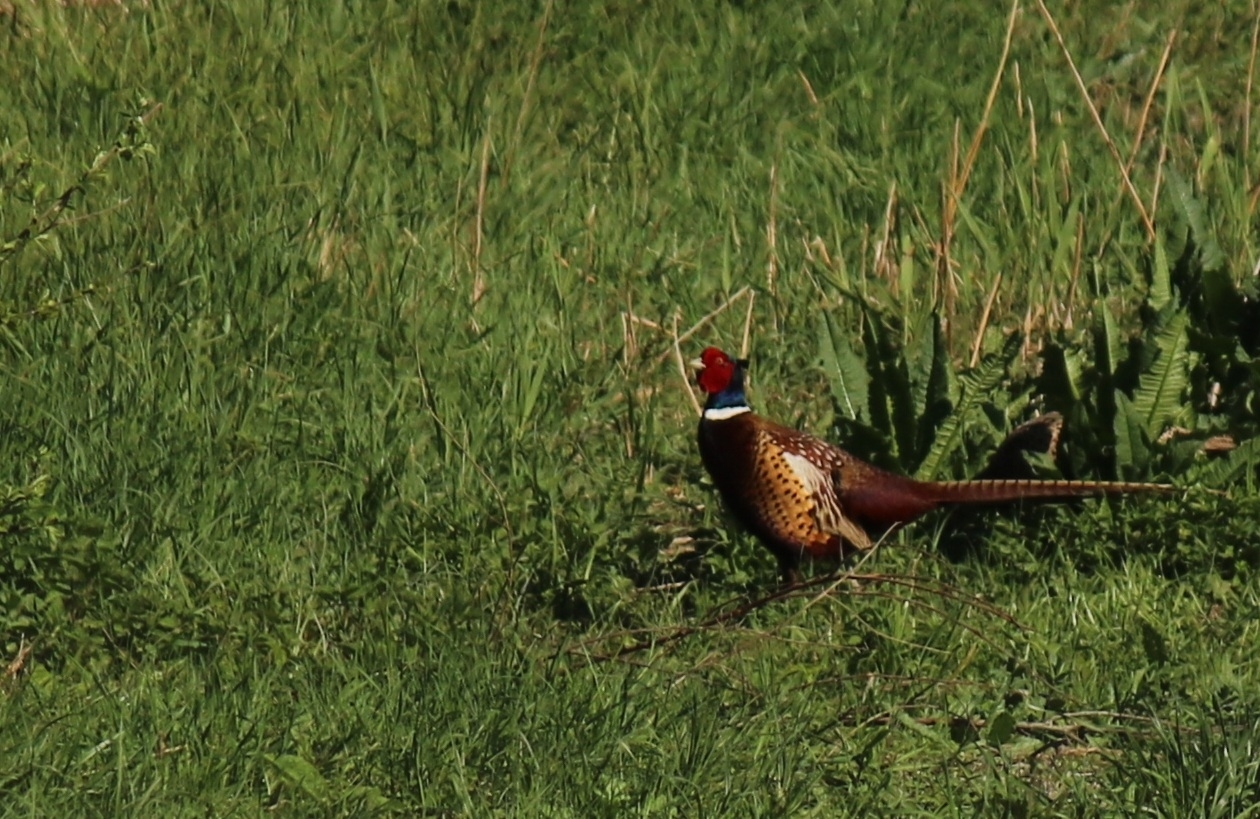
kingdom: Animalia
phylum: Chordata
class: Aves
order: Galliformes
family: Phasianidae
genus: Phasianus
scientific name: Phasianus colchicus
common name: Common pheasant
